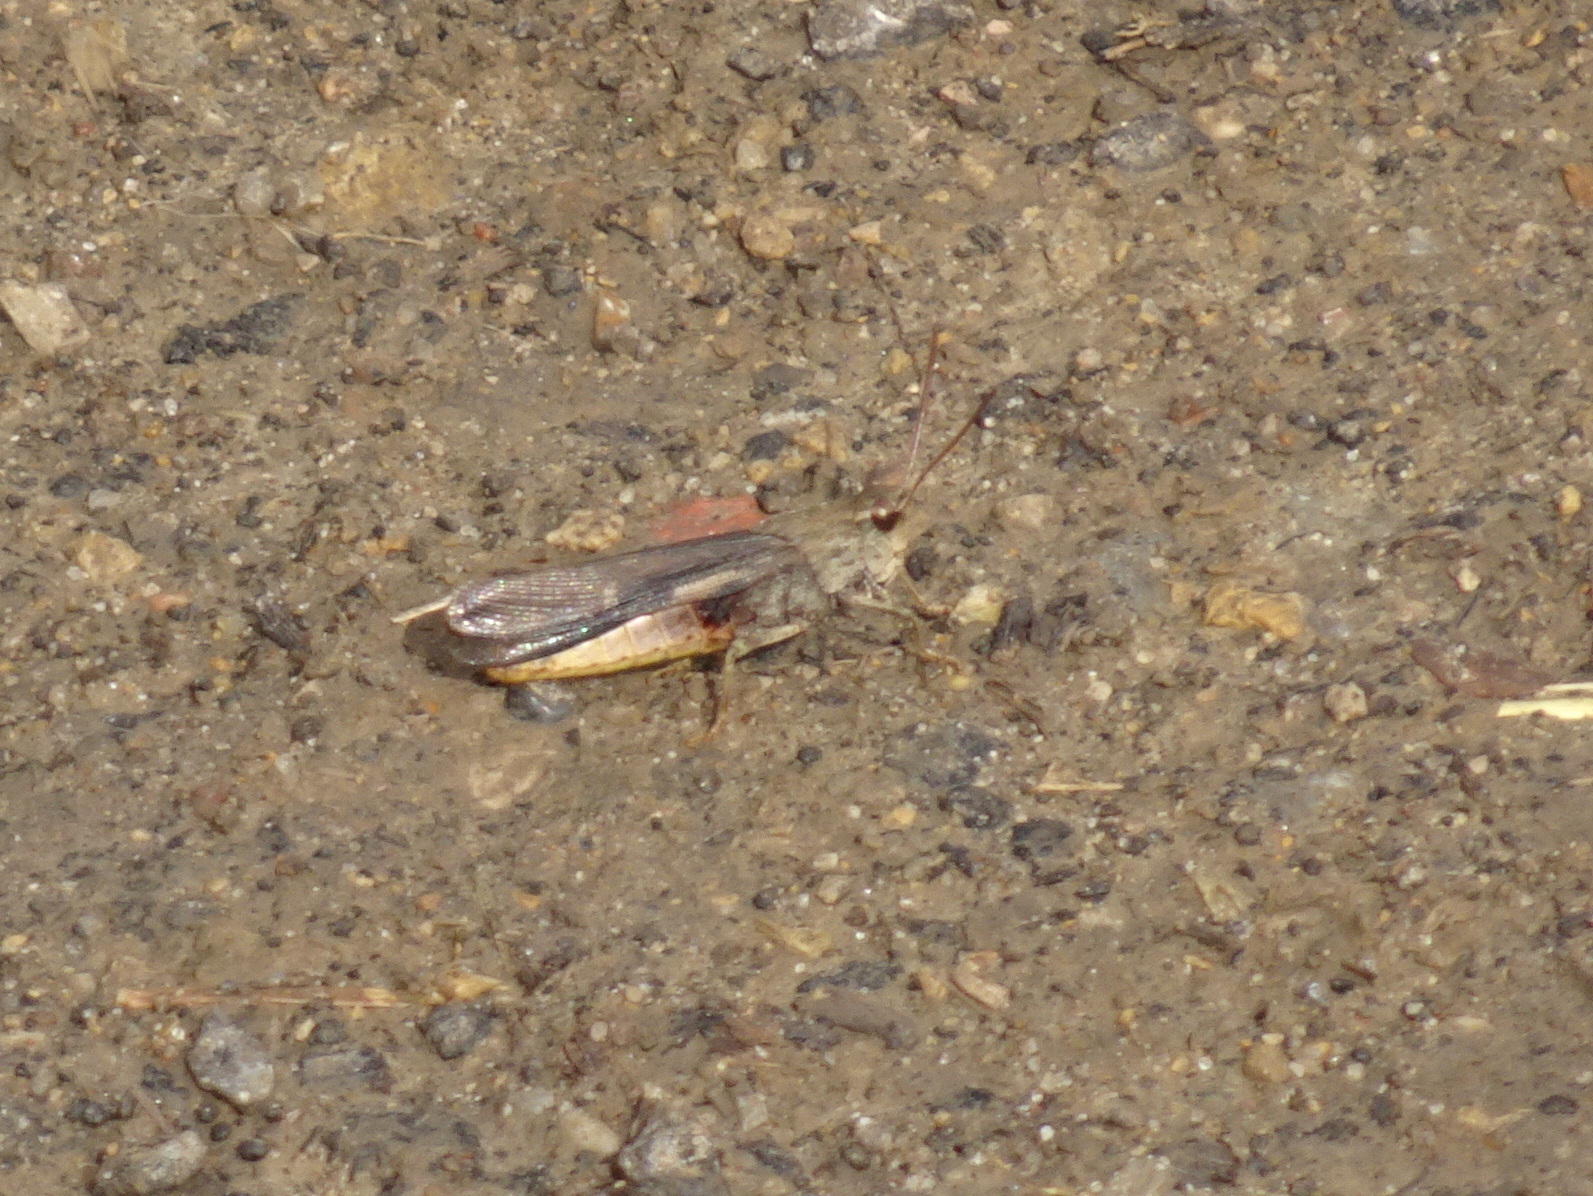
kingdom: Animalia
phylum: Arthropoda
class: Insecta
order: Orthoptera
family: Acrididae
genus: Chortophaga
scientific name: Chortophaga viridifasciata
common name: Green-striped grasshopper
